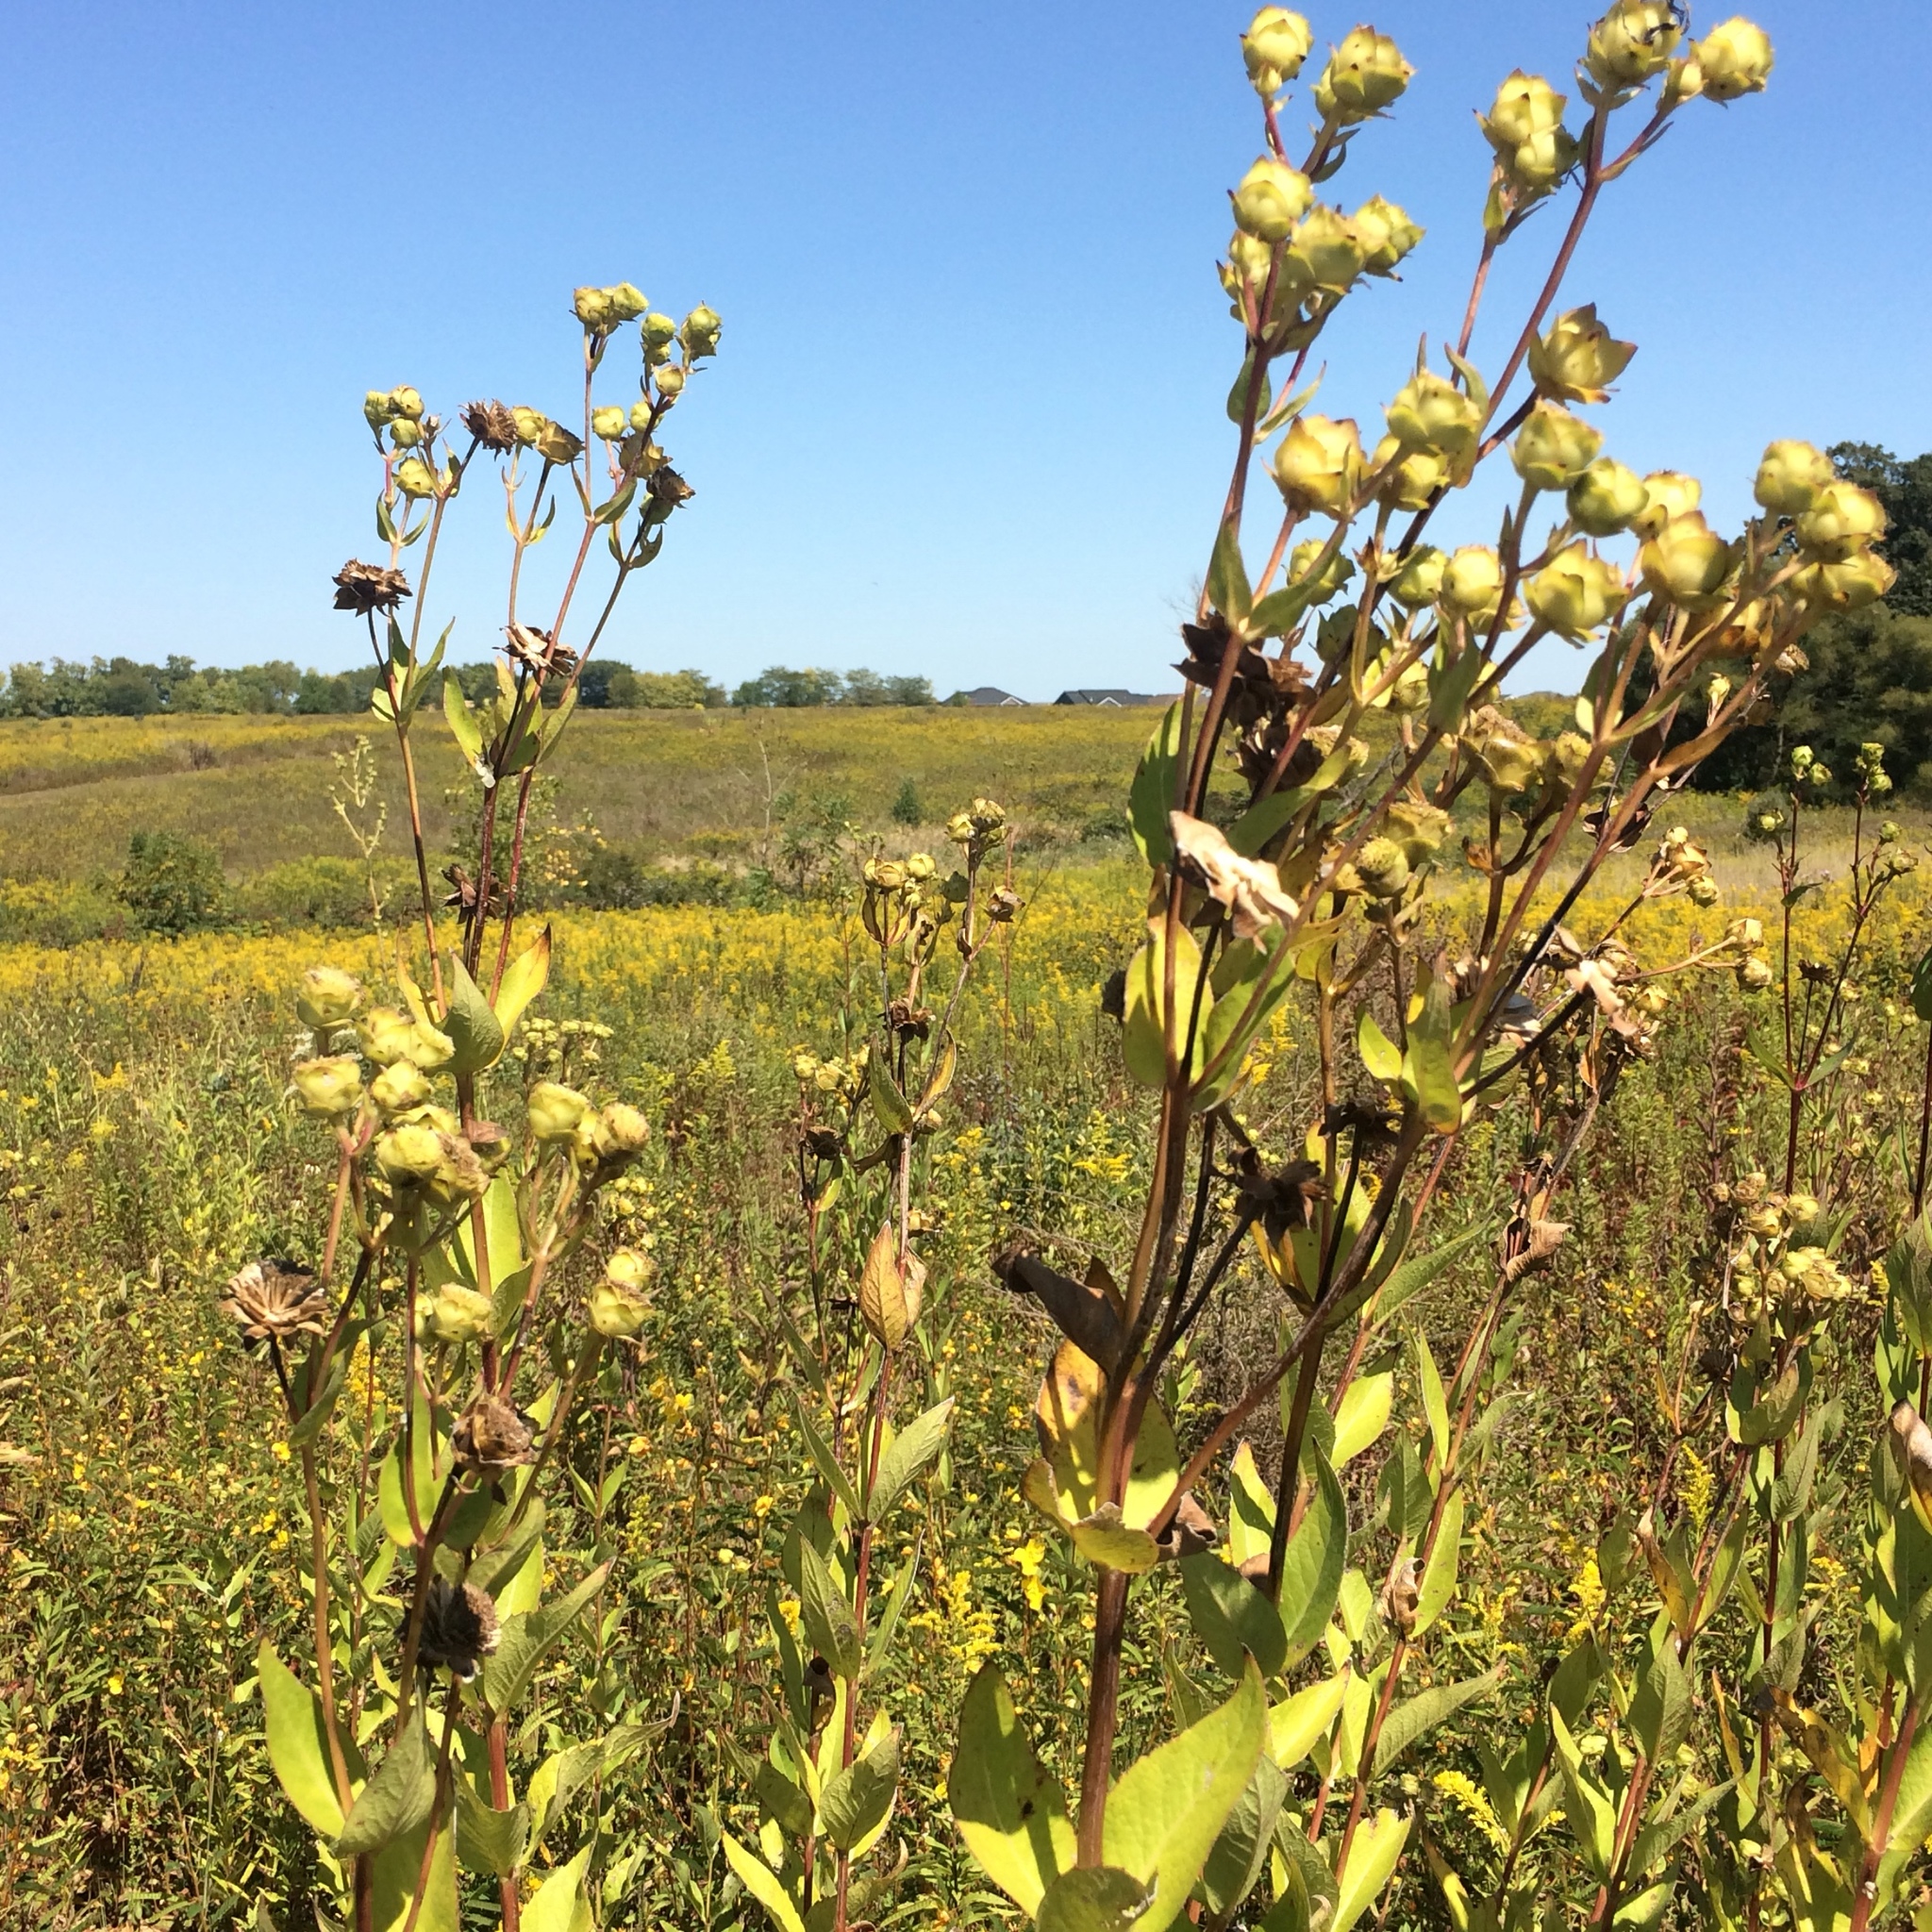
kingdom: Plantae
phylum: Tracheophyta
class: Magnoliopsida
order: Asterales
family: Asteraceae
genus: Silphium
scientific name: Silphium integrifolium
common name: Whole-leaf rosinweed
